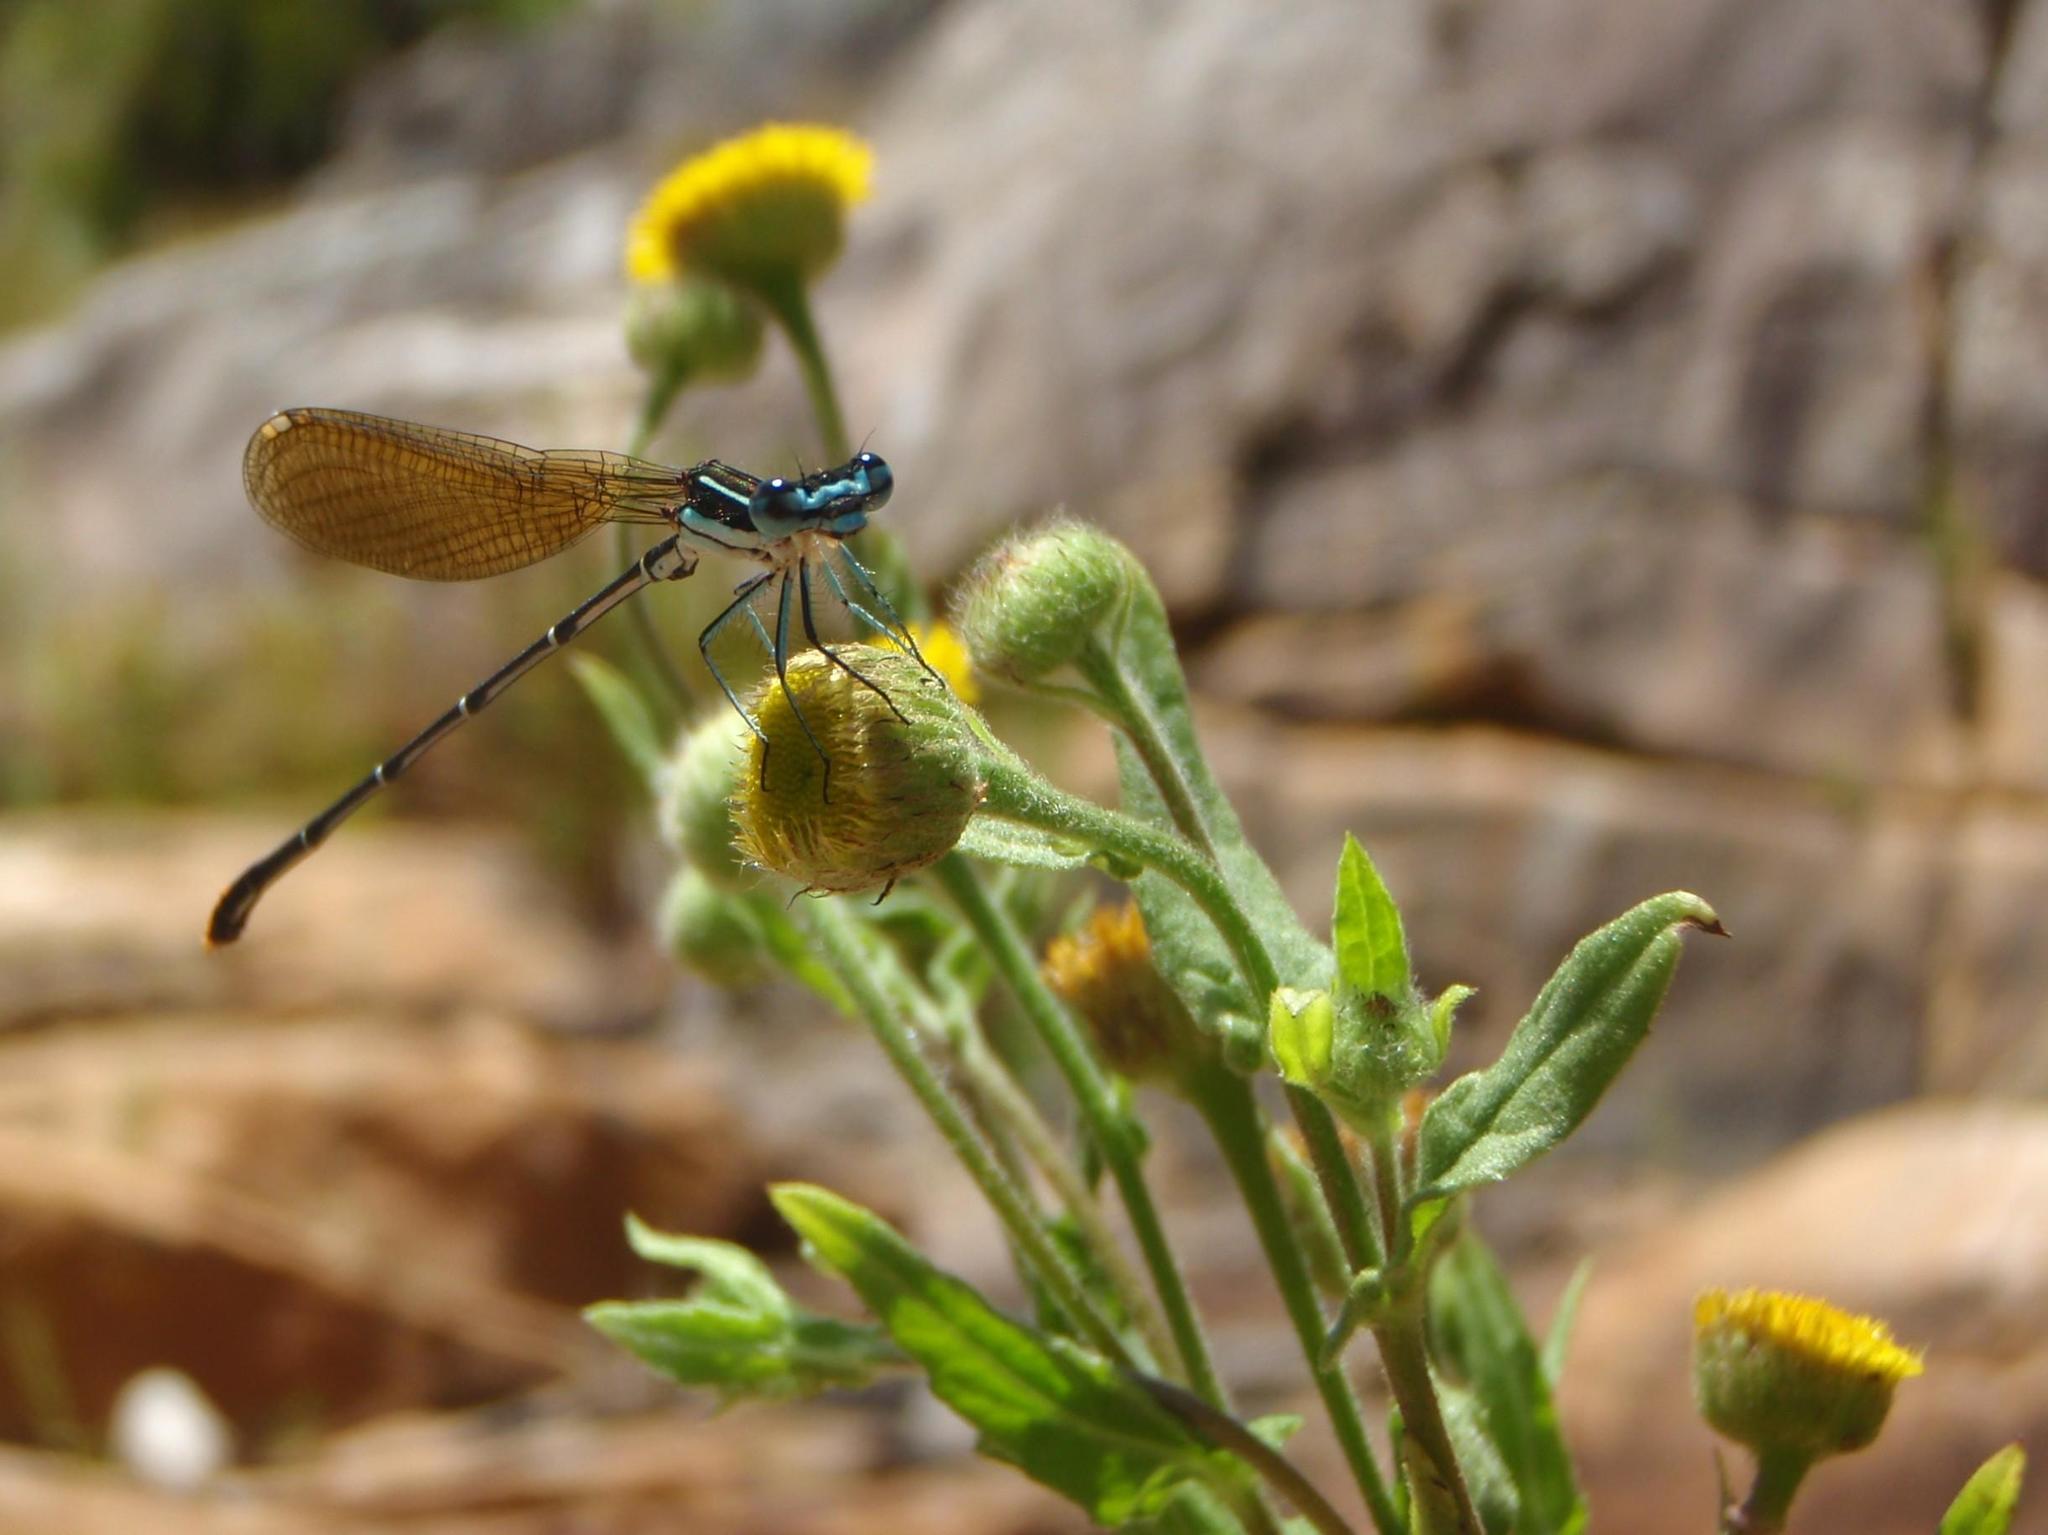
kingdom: Plantae
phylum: Tracheophyta
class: Magnoliopsida
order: Asterales
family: Asteraceae
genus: Pulicaria
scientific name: Pulicaria scabra
